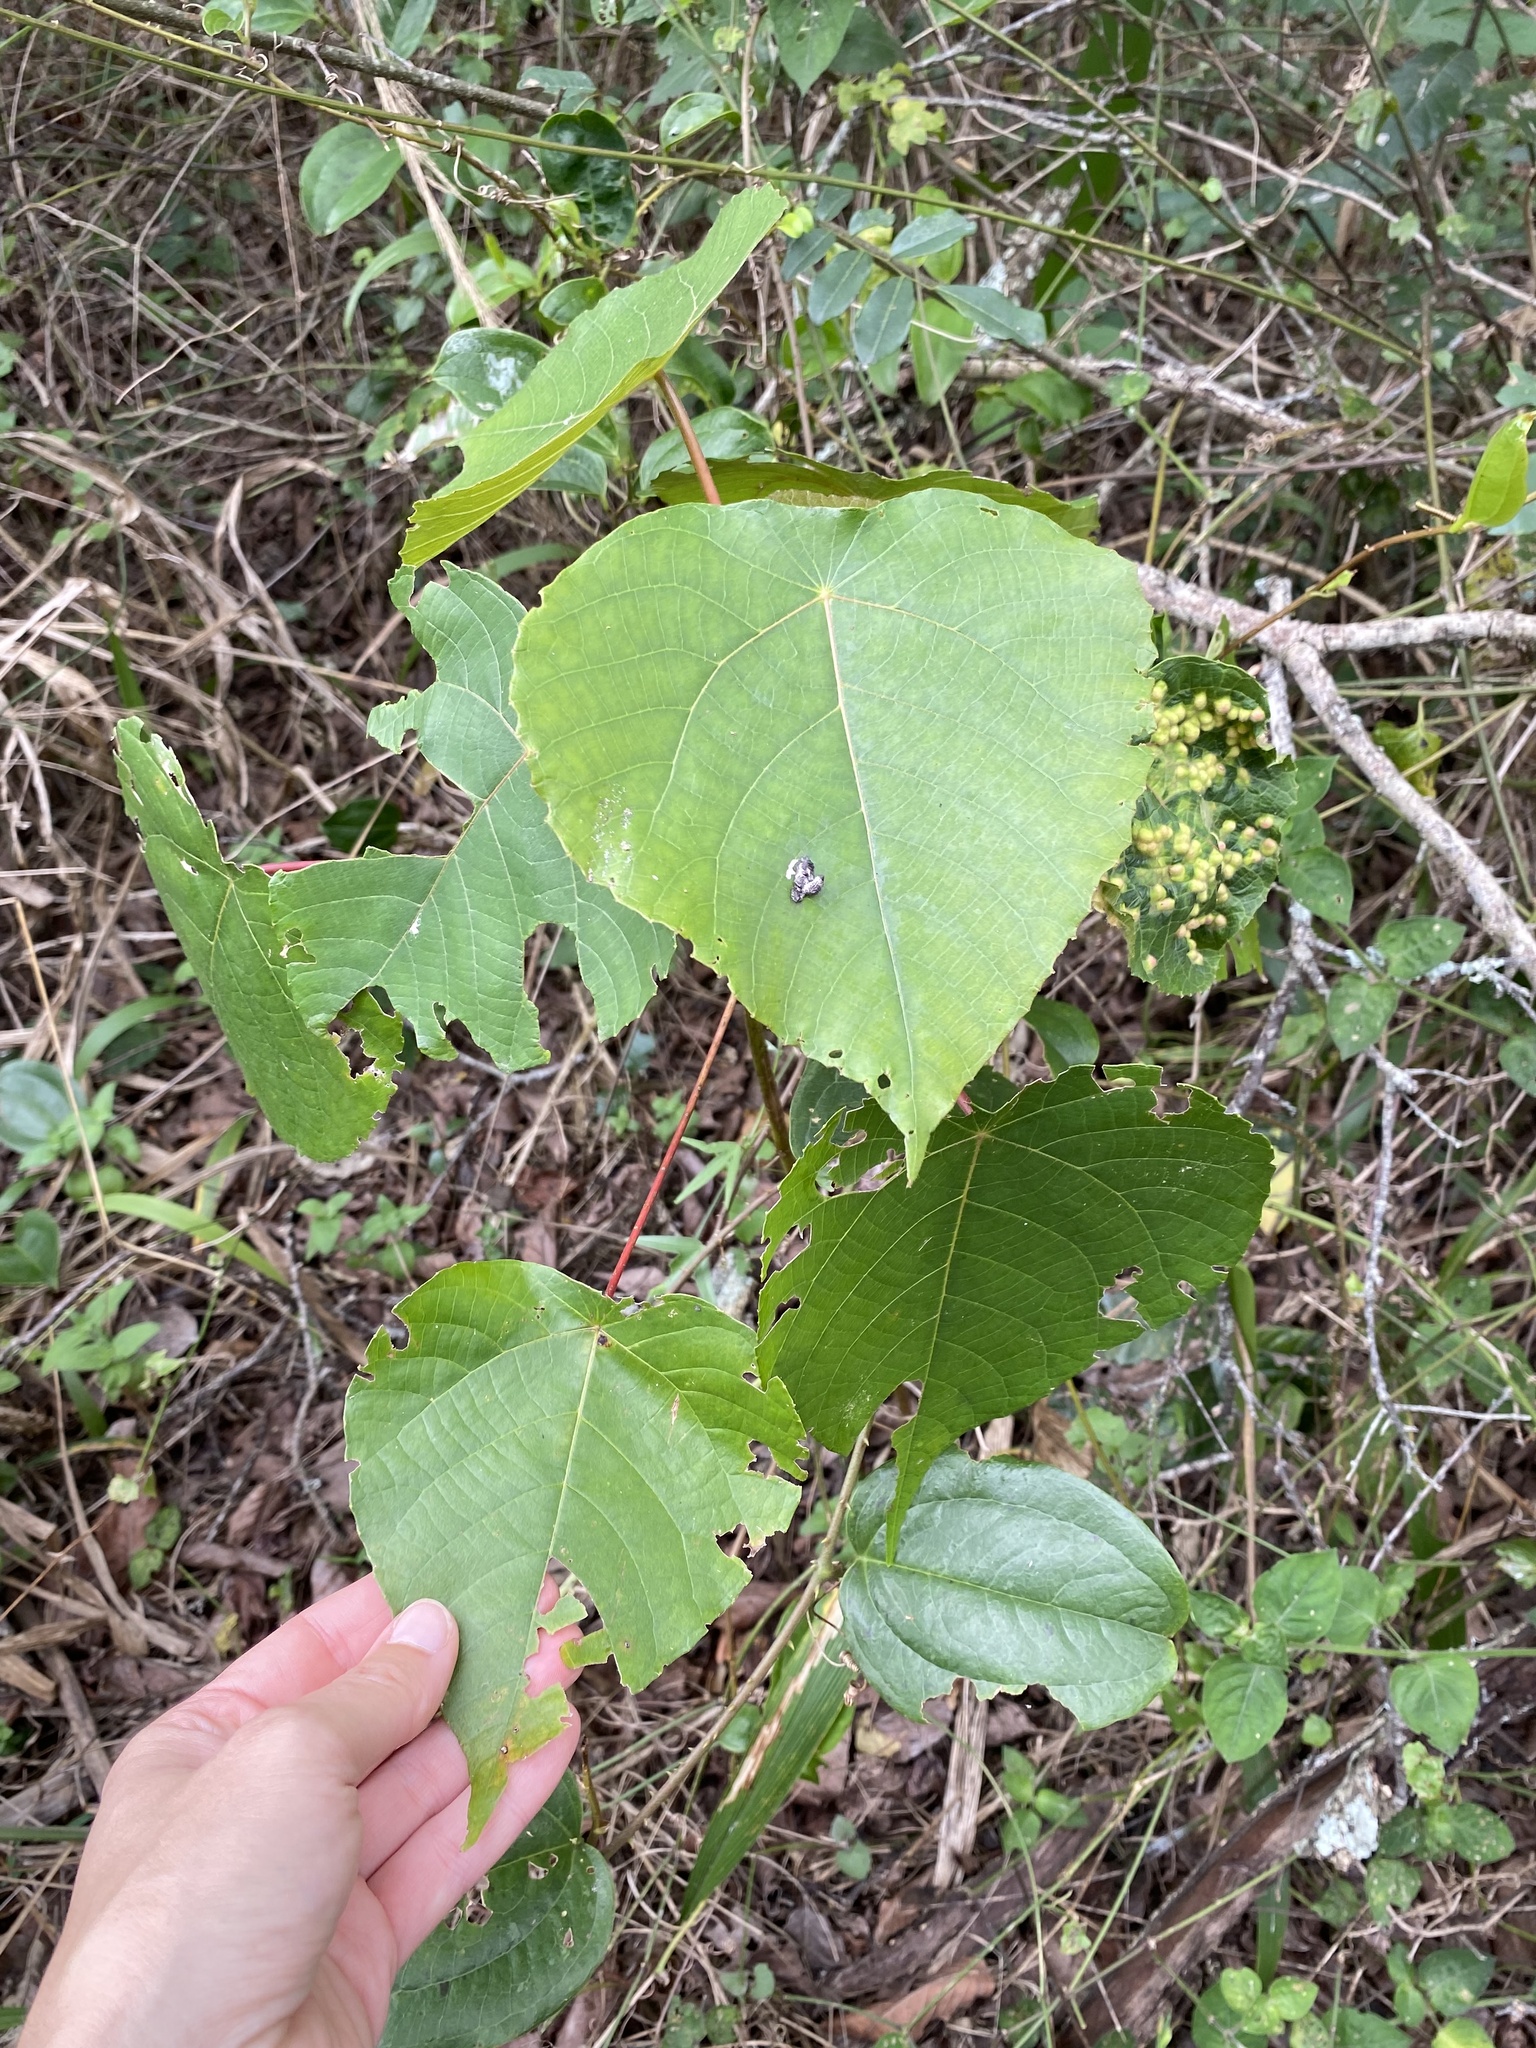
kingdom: Plantae
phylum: Tracheophyta
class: Magnoliopsida
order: Malpighiales
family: Euphorbiaceae
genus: Macaranga
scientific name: Macaranga capensis
